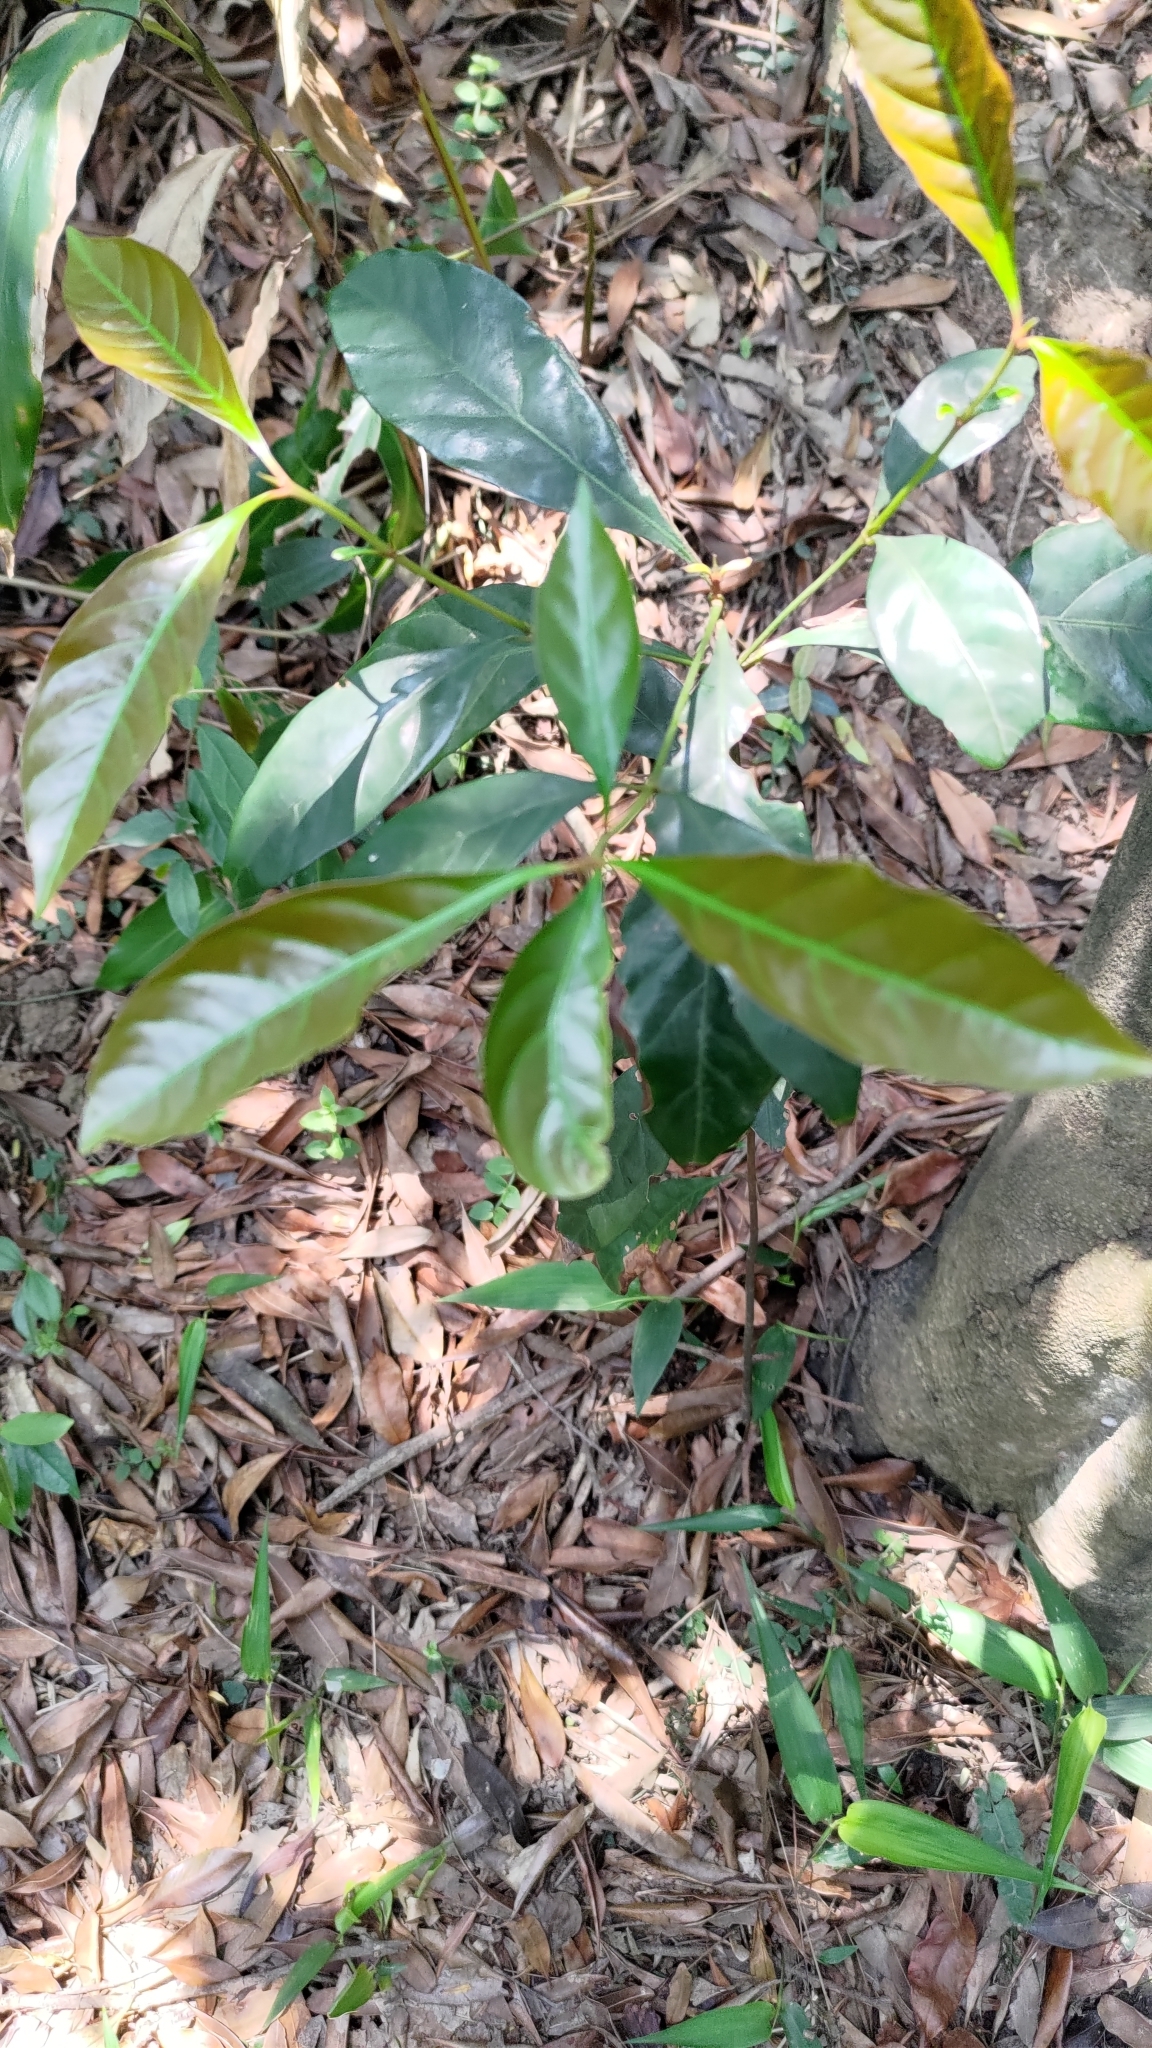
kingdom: Plantae
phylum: Tracheophyta
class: Magnoliopsida
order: Gentianales
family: Rubiaceae
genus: Aidia
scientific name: Aidia cochinchinensis
